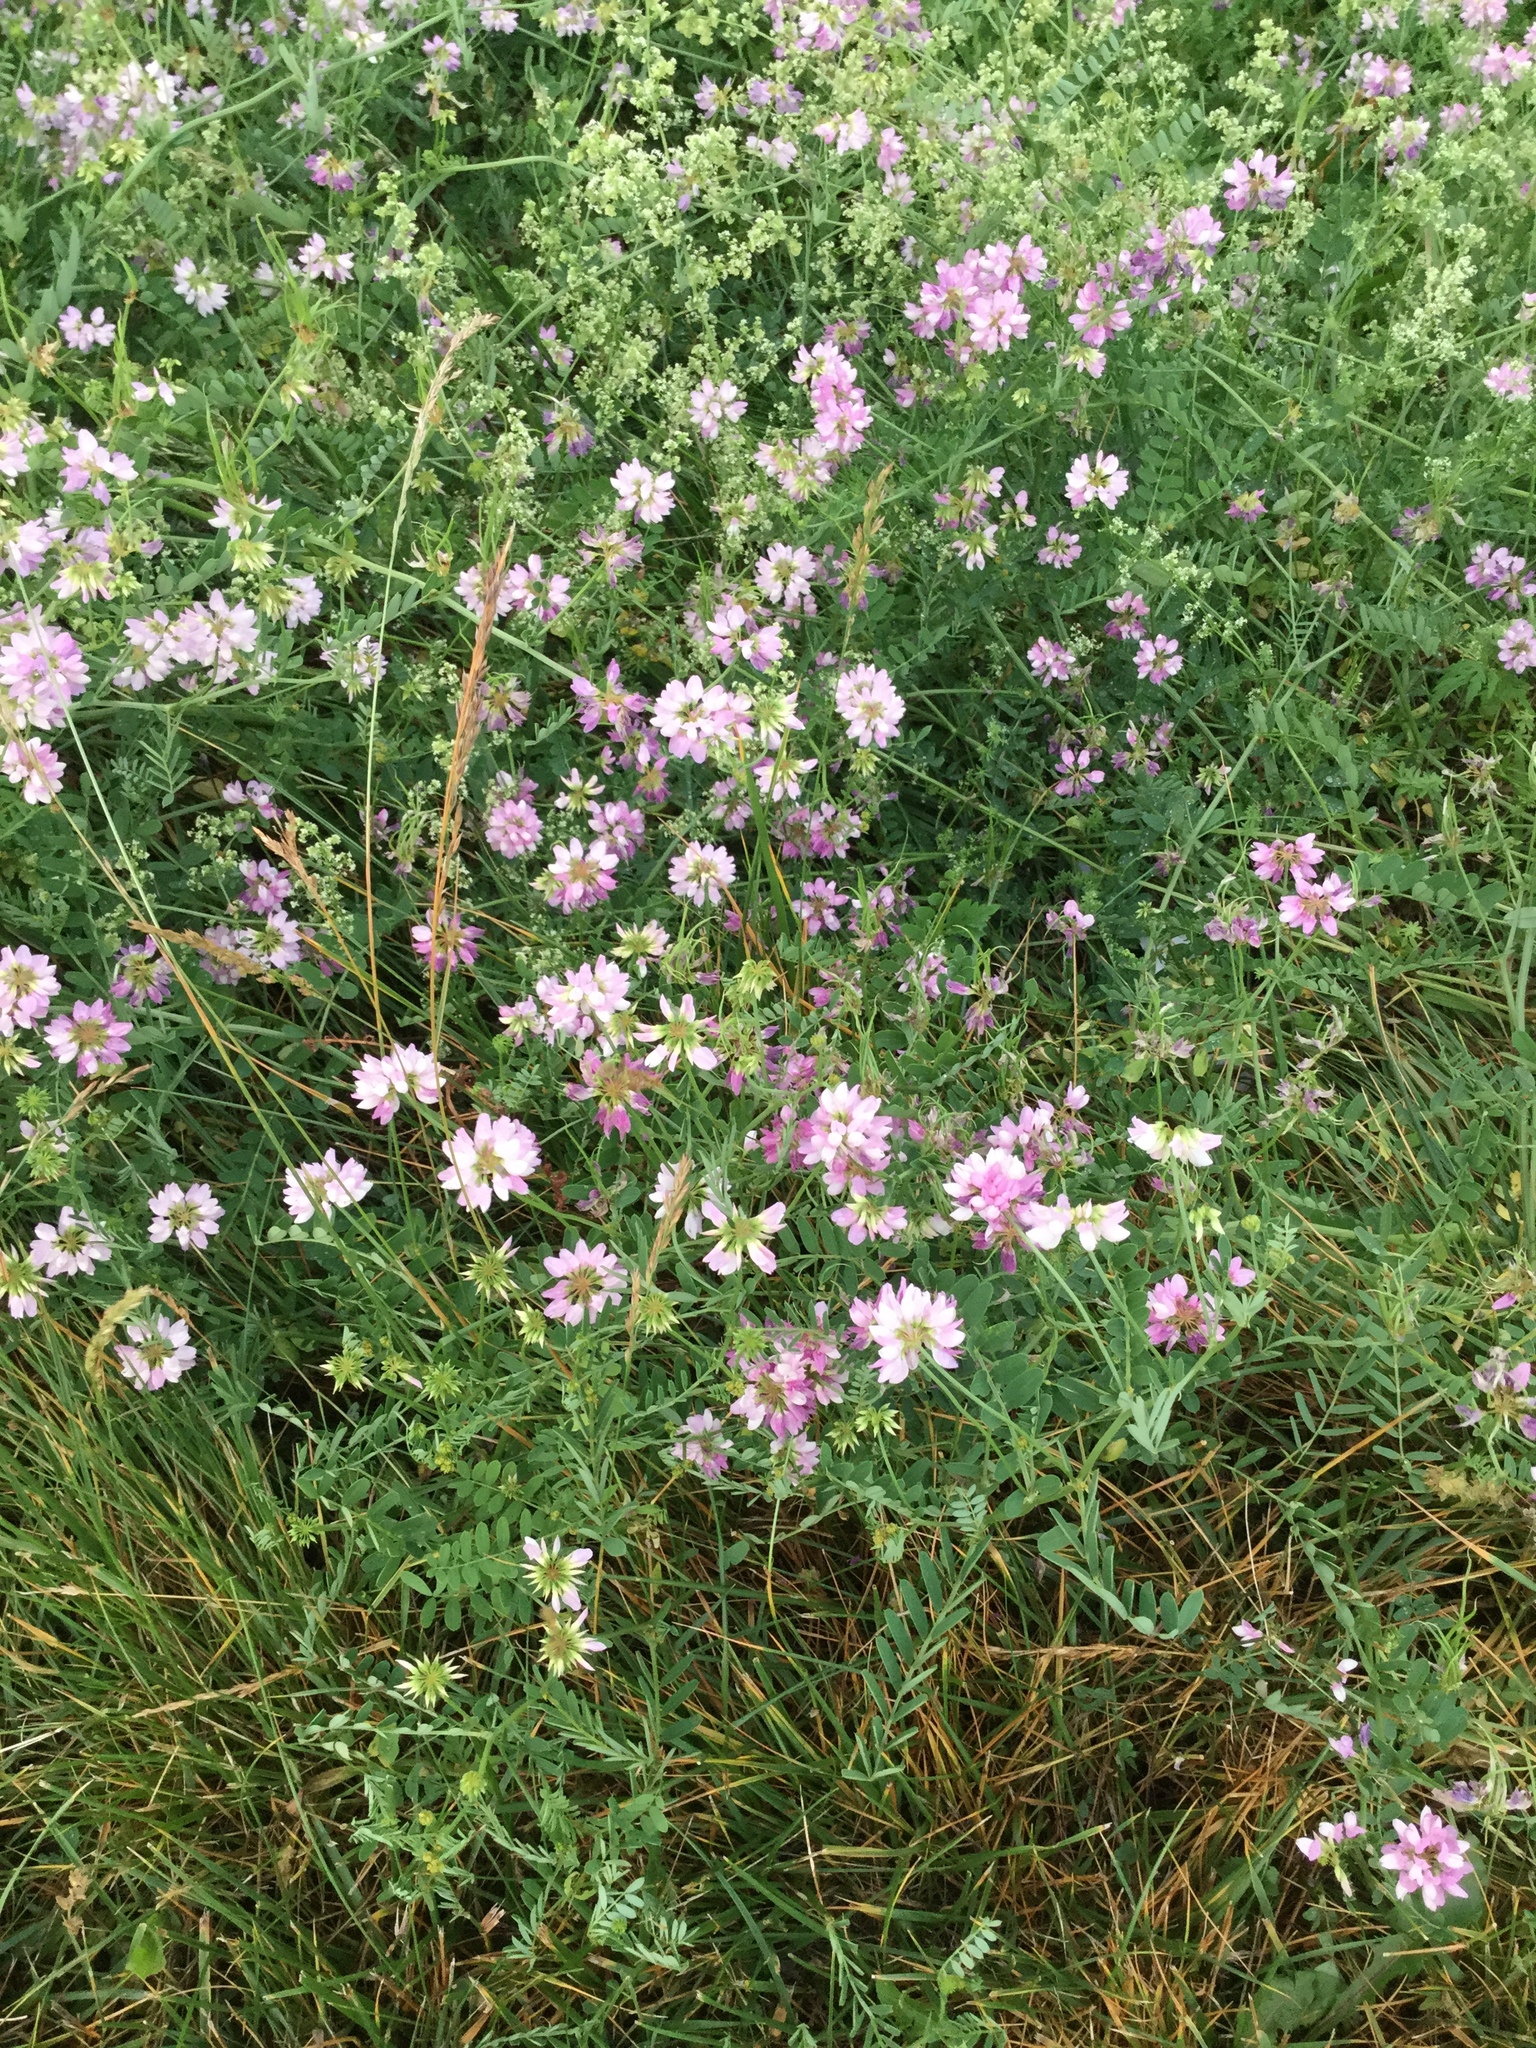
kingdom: Plantae
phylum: Tracheophyta
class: Magnoliopsida
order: Fabales
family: Fabaceae
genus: Coronilla
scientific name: Coronilla varia
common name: Crownvetch
